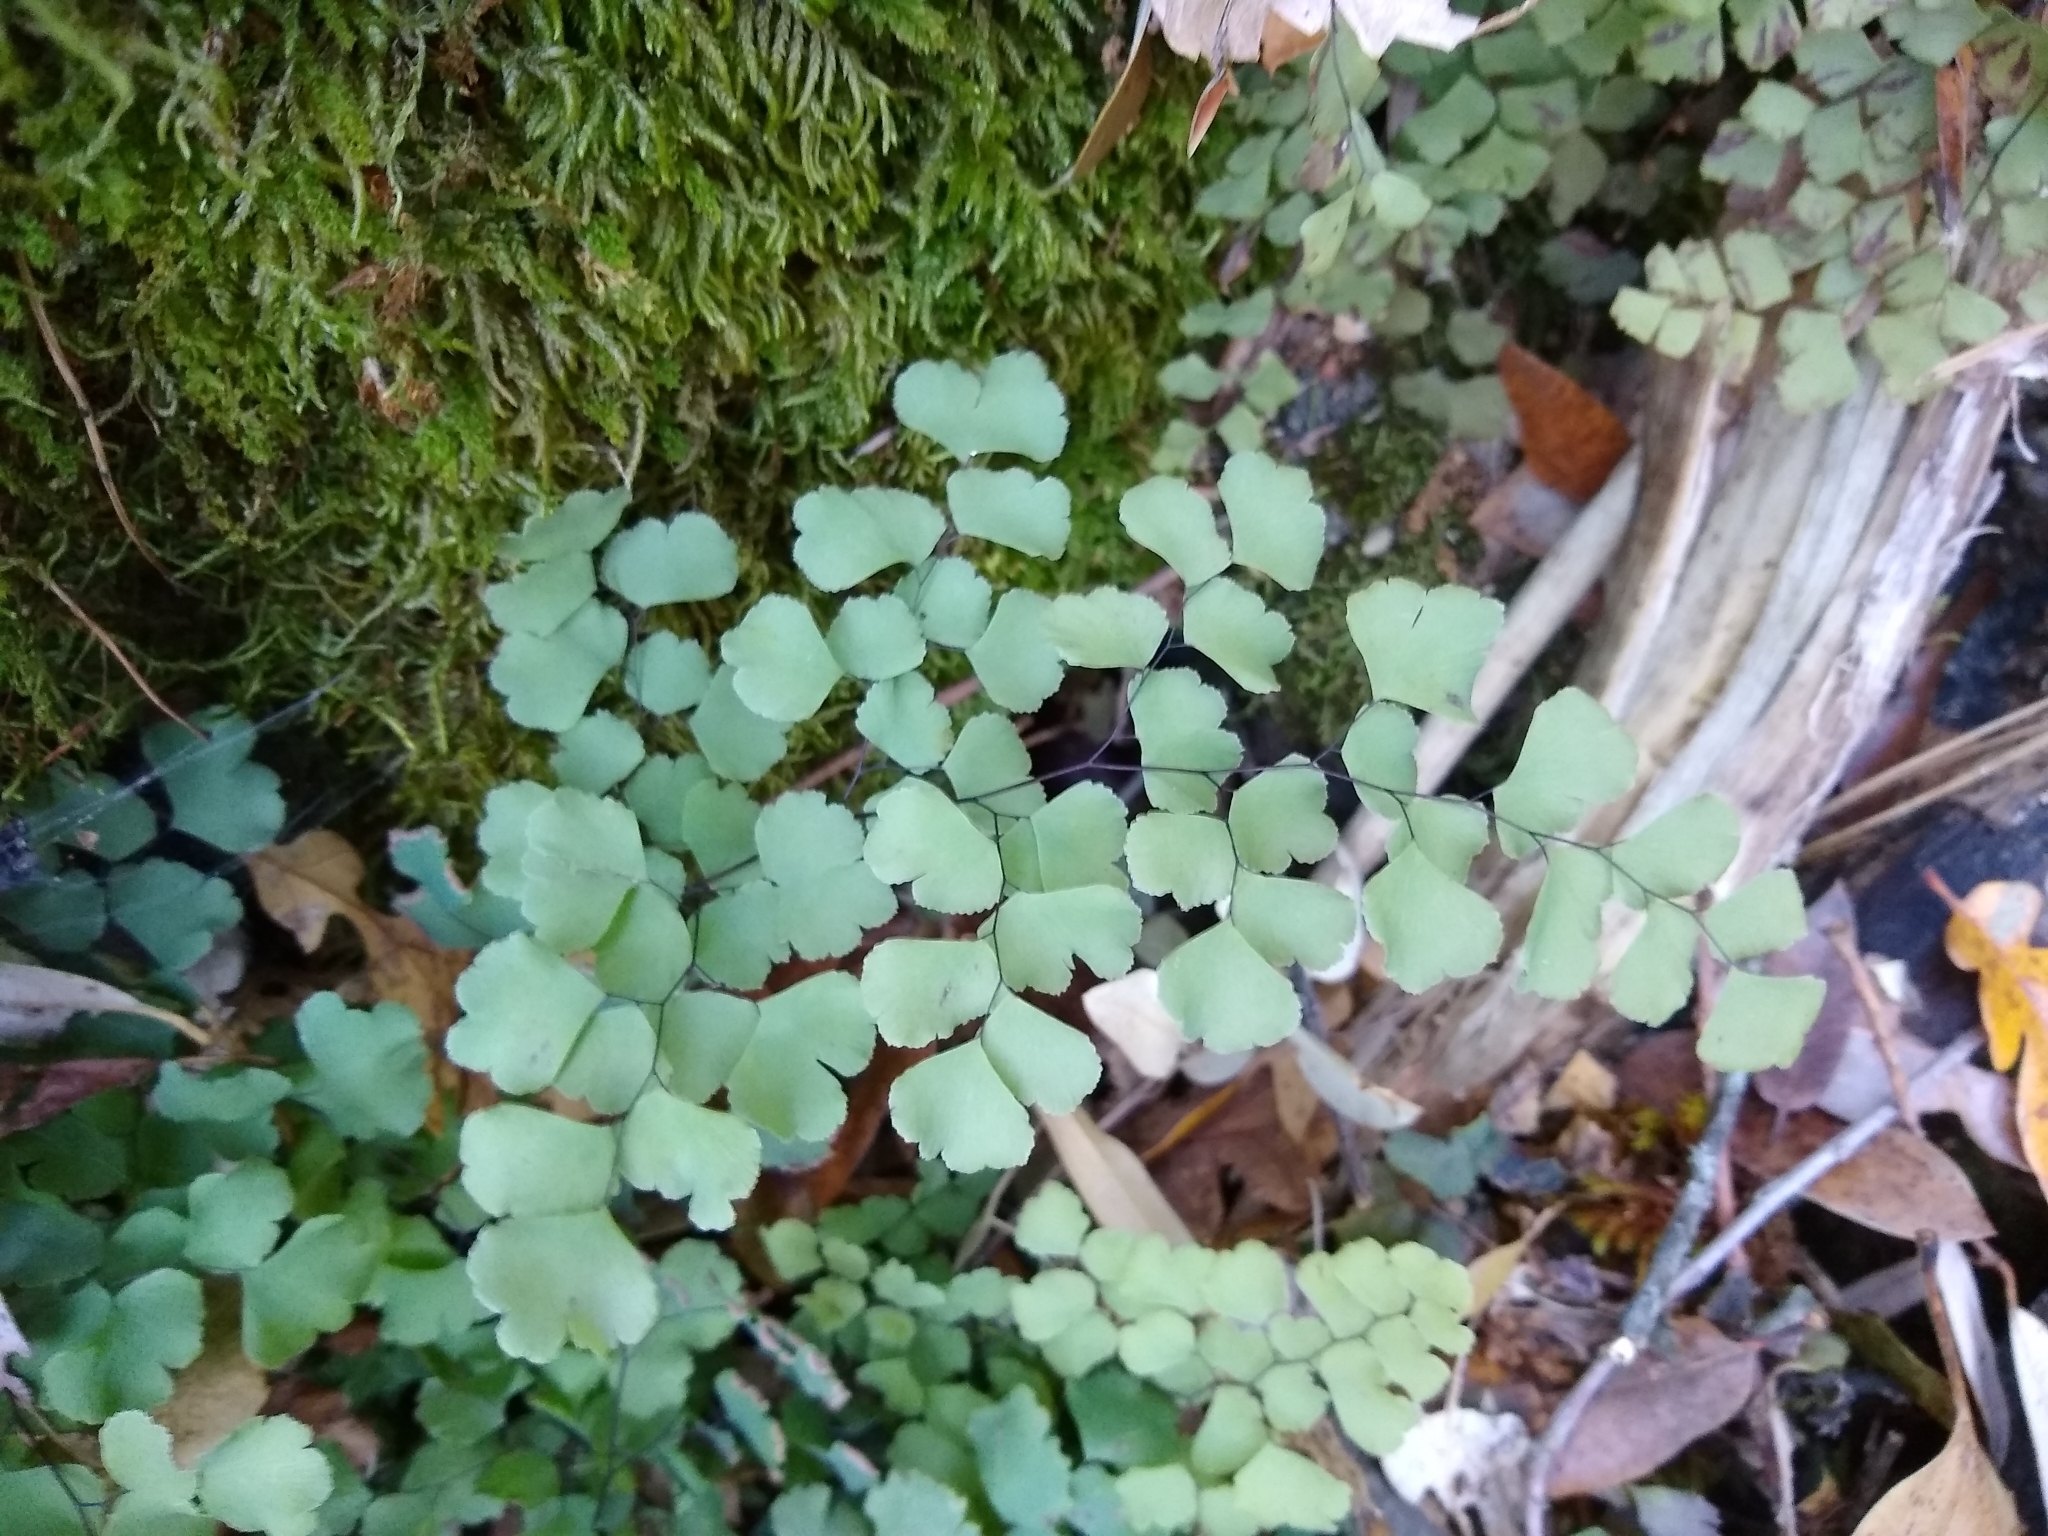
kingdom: Plantae
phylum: Tracheophyta
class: Polypodiopsida
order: Polypodiales
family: Pteridaceae
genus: Adiantum
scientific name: Adiantum shastense
